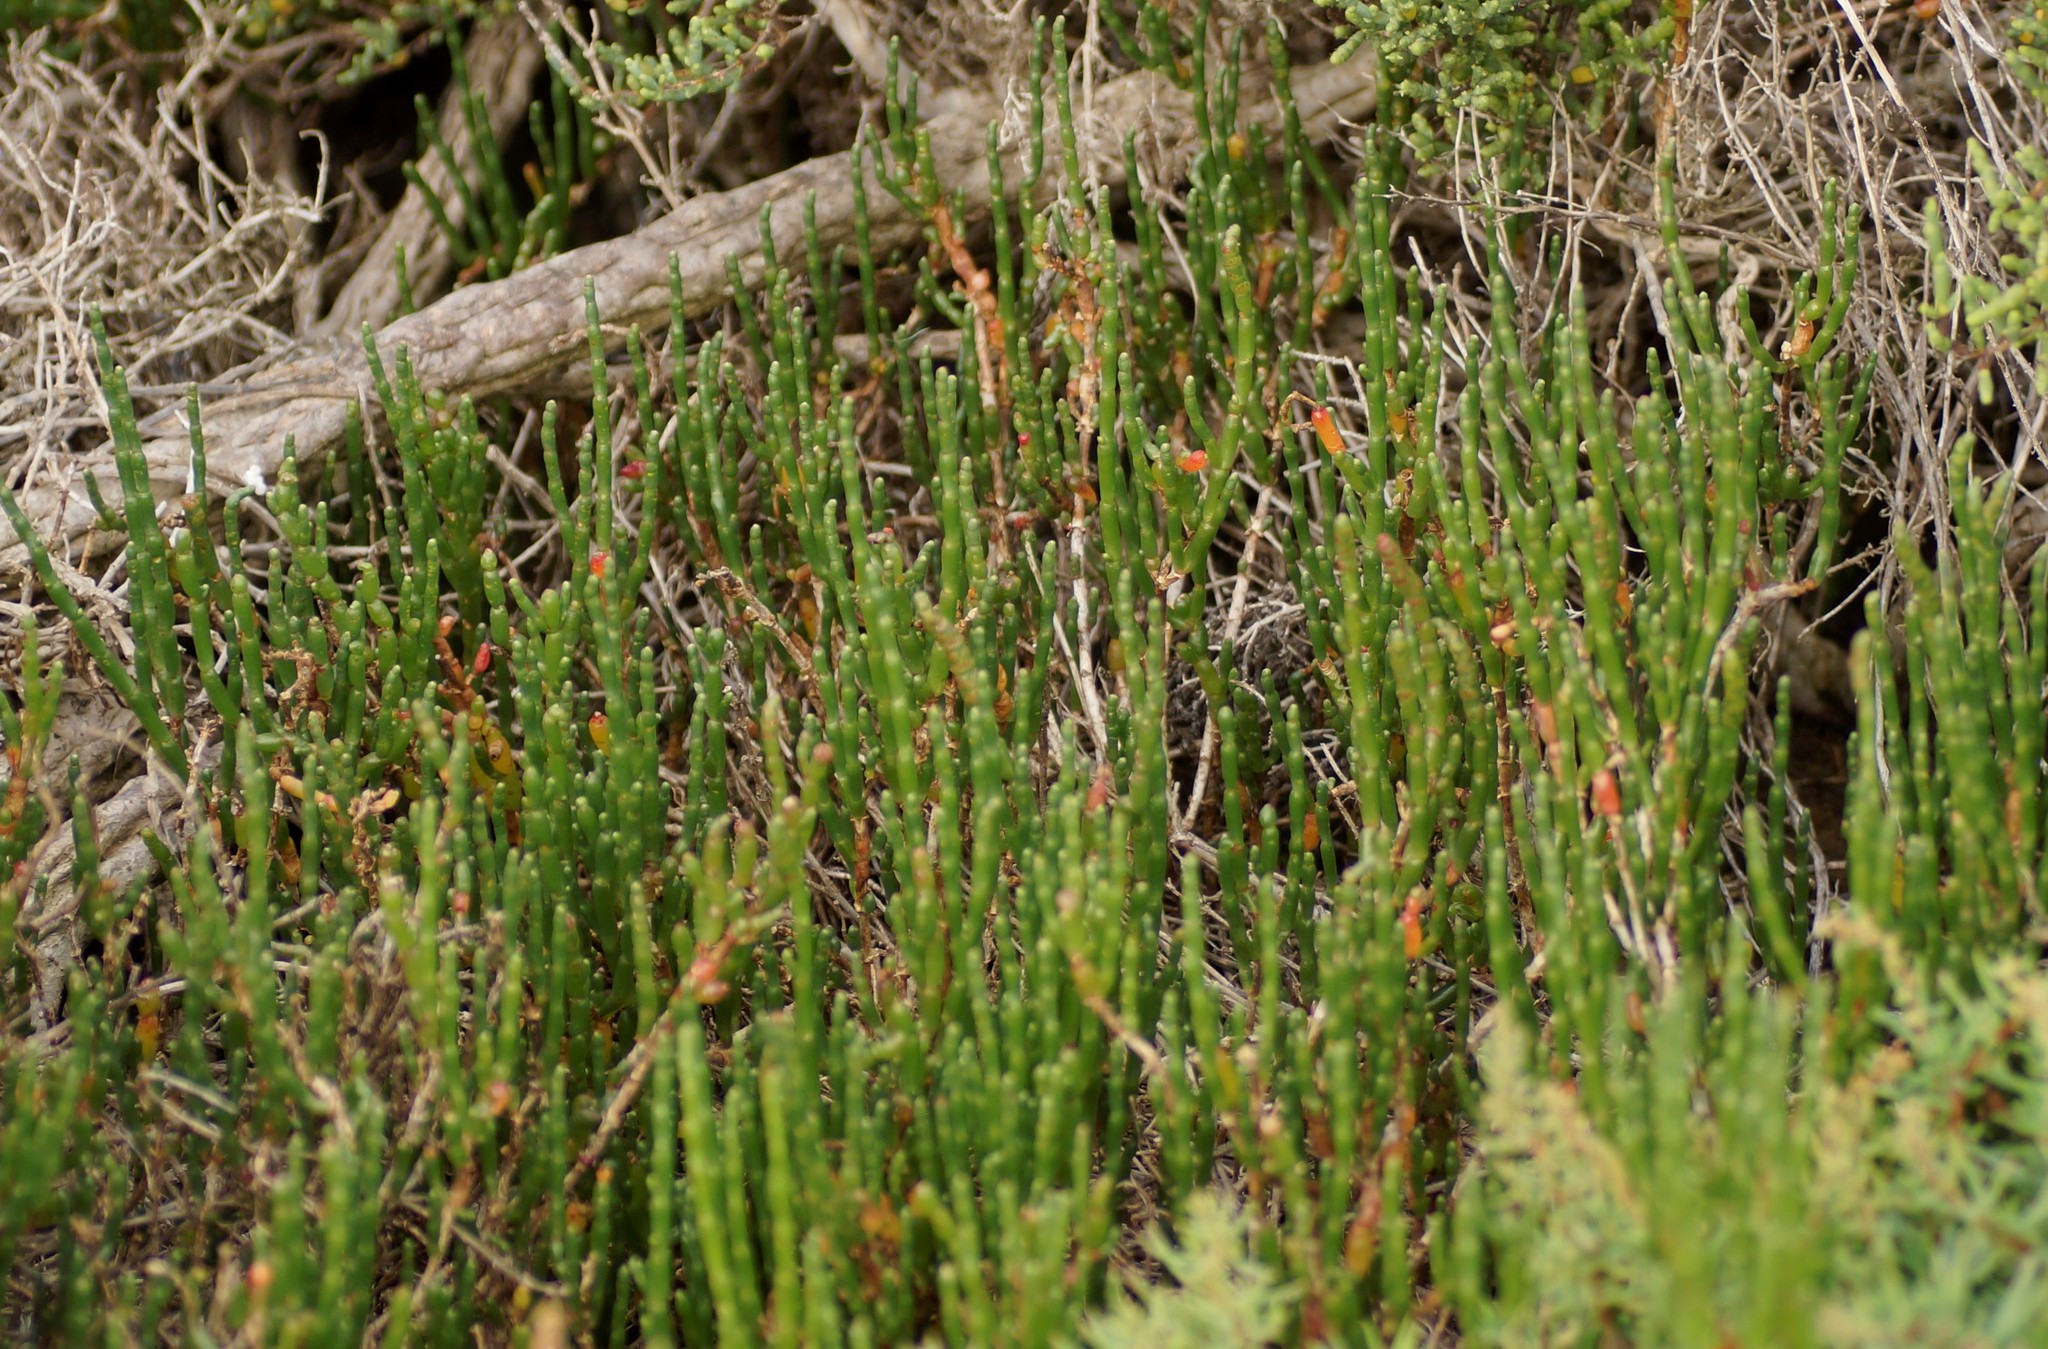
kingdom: Plantae
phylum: Tracheophyta
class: Magnoliopsida
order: Caryophyllales
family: Amaranthaceae
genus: Salicornia
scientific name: Salicornia quinqueflora
